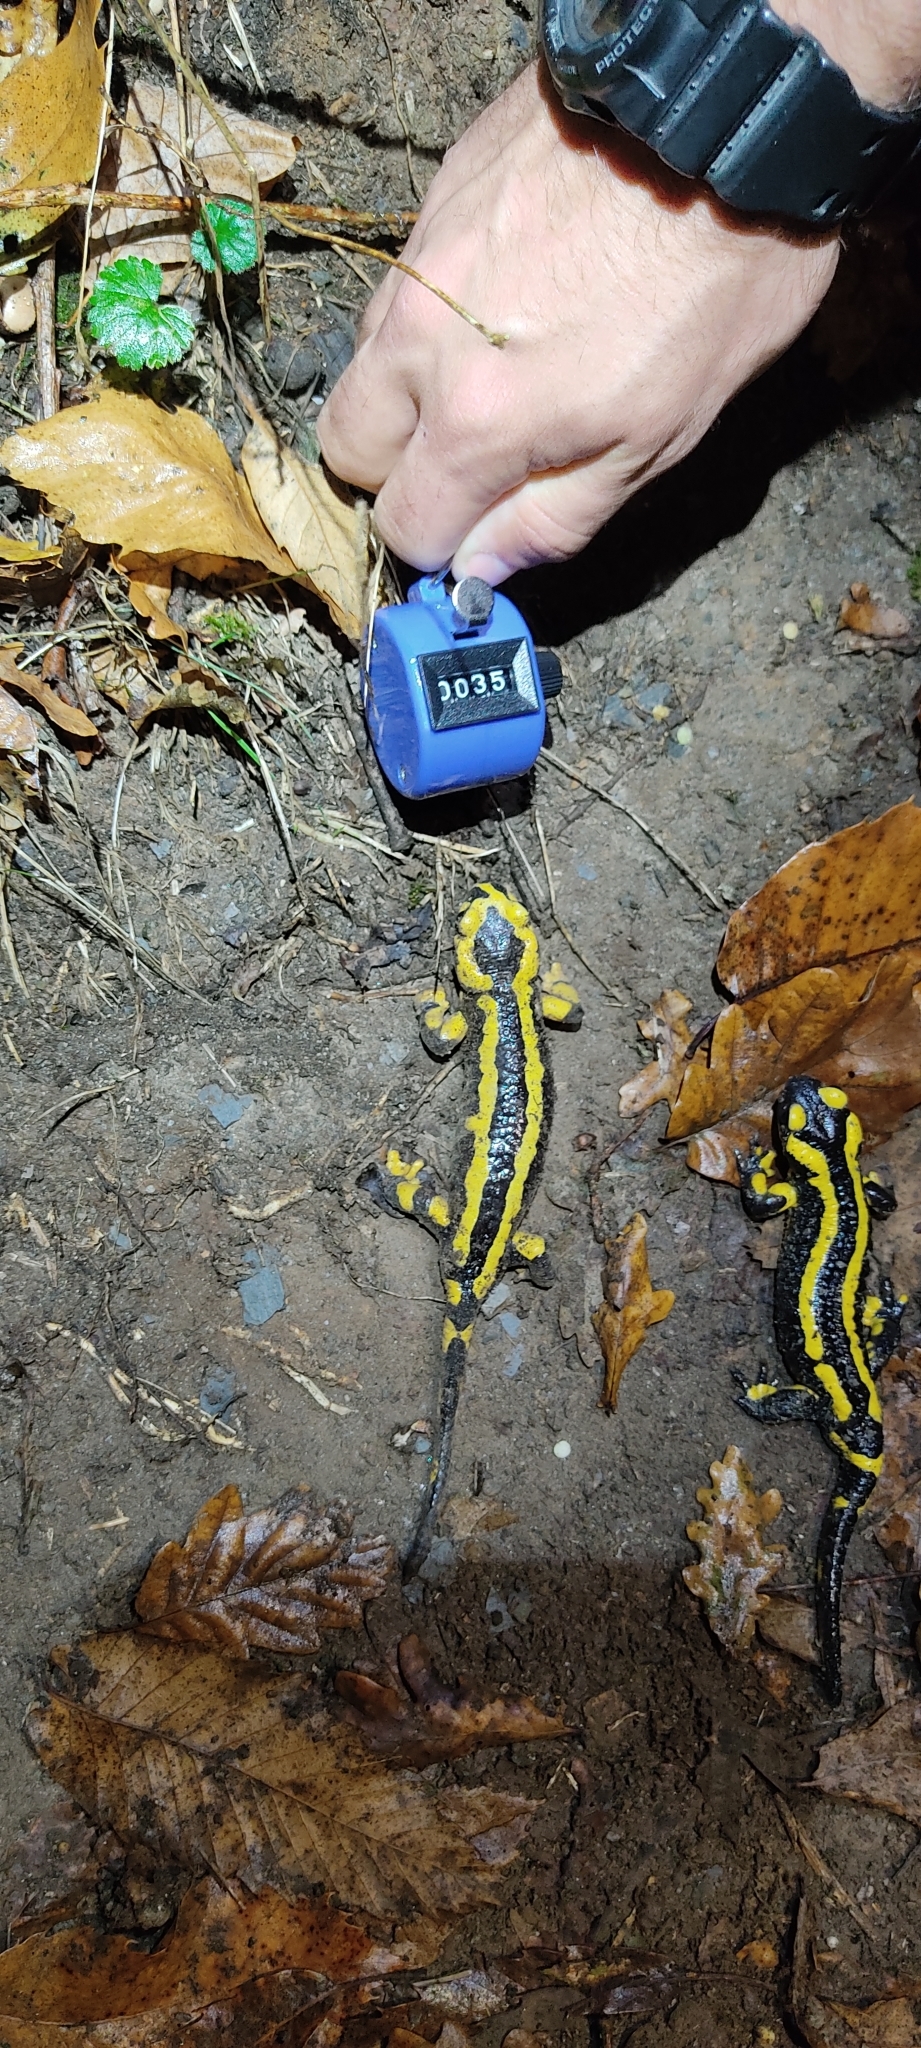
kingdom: Animalia
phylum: Chordata
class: Amphibia
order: Caudata
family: Salamandridae
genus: Salamandra
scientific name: Salamandra salamandra
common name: Fire salamander
